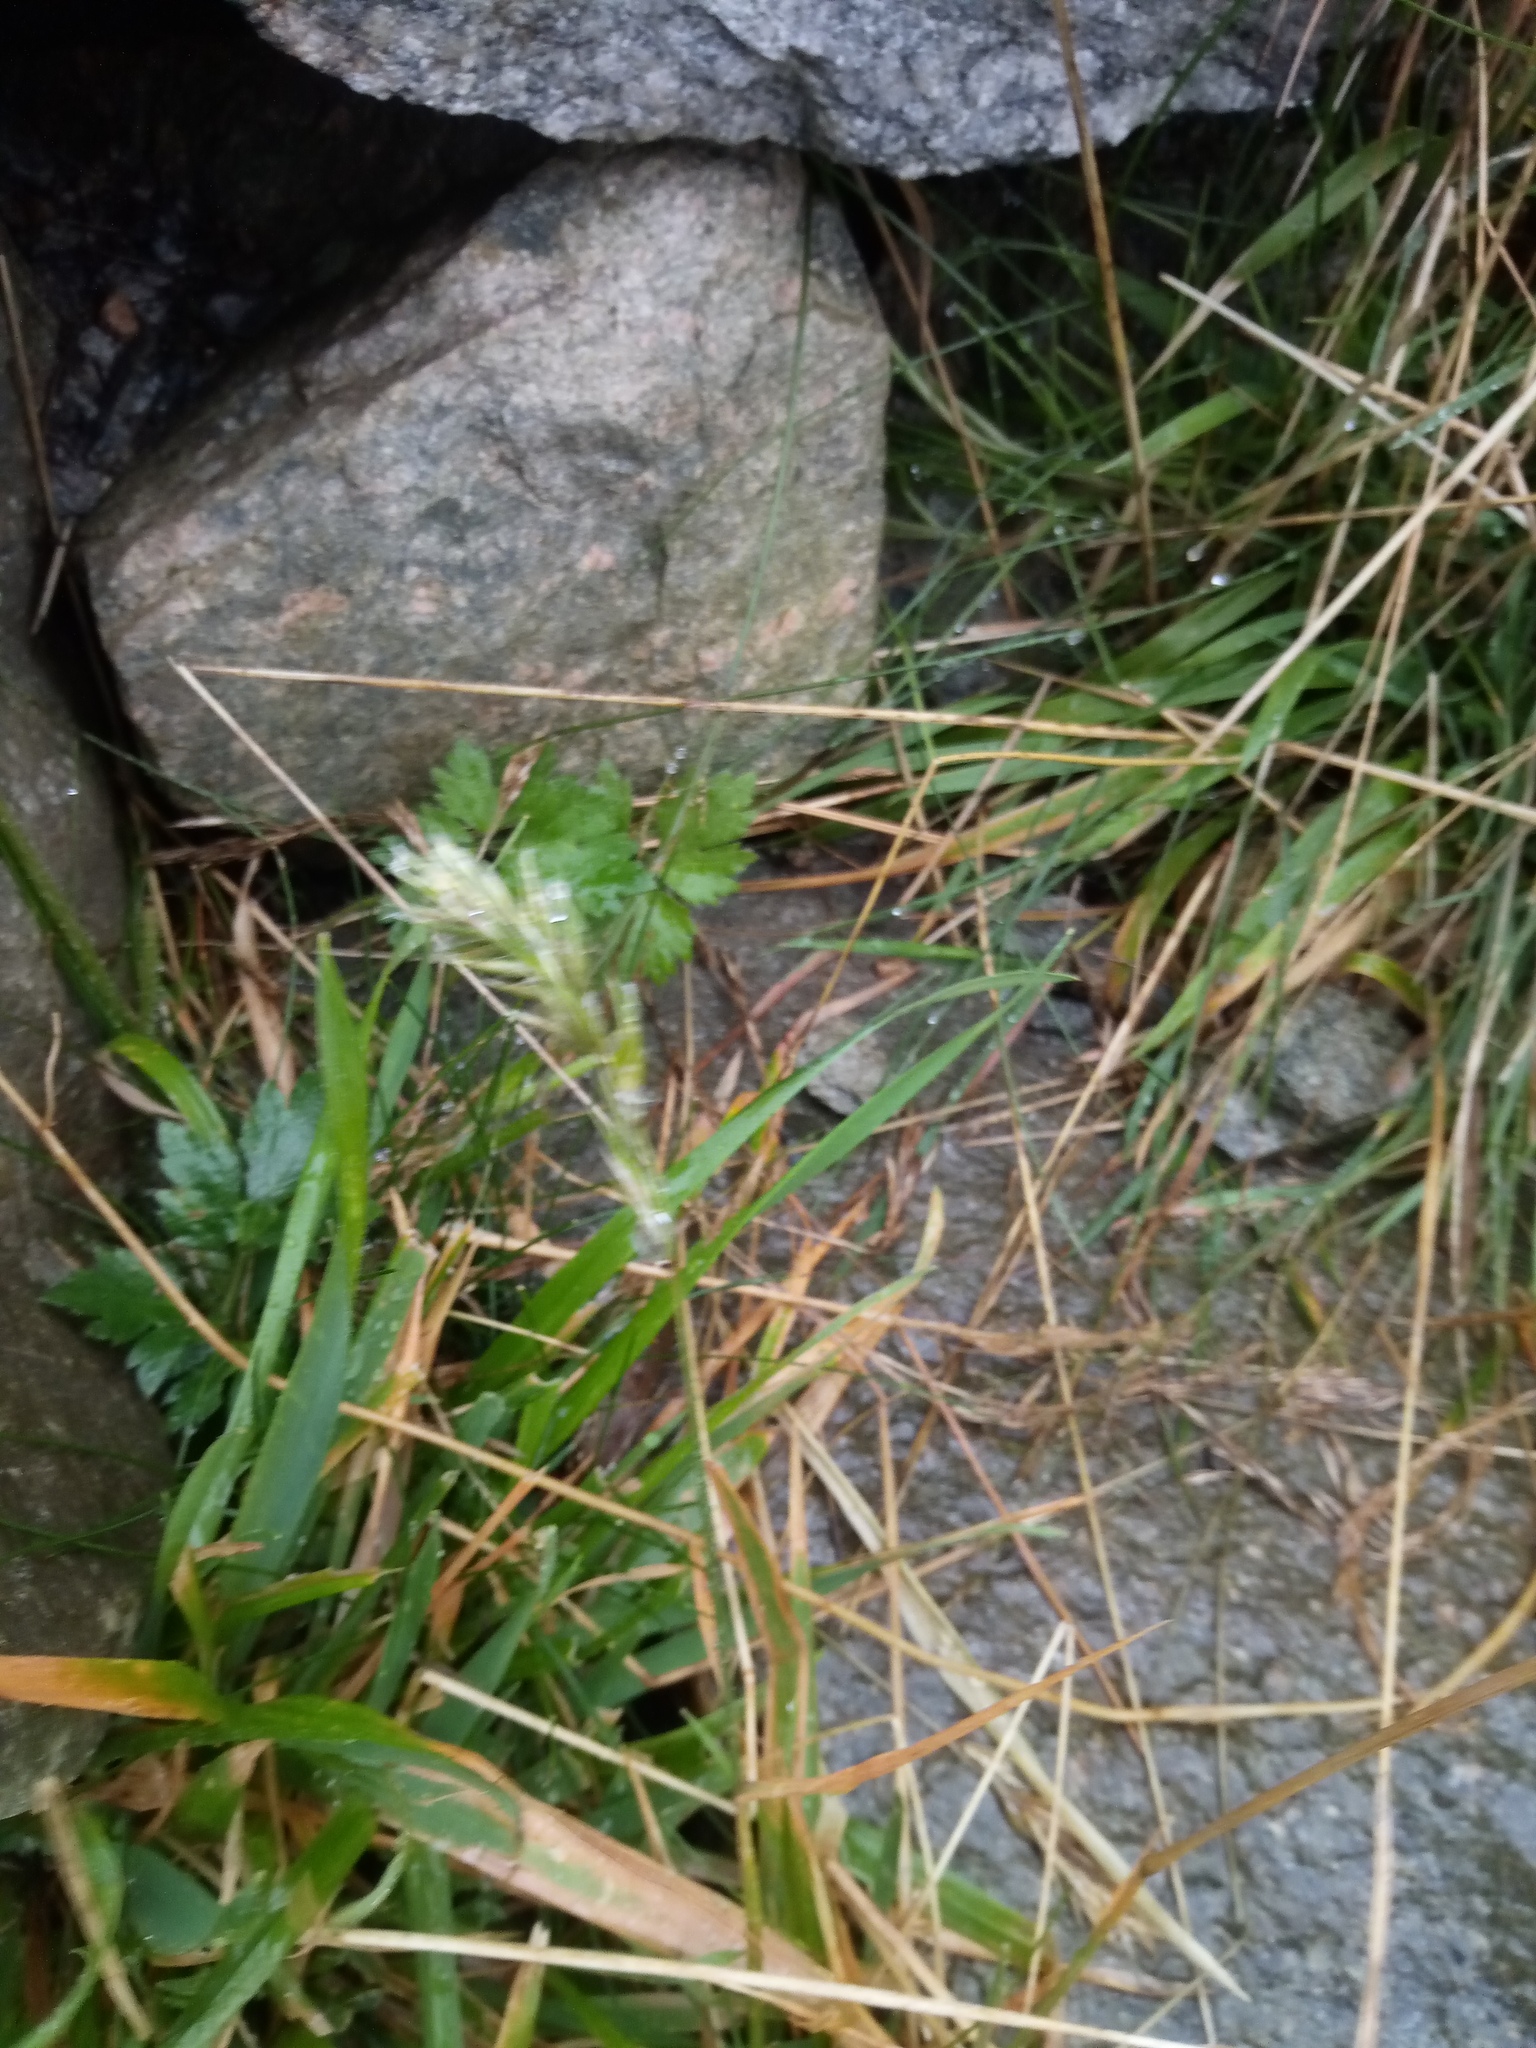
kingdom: Plantae
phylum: Tracheophyta
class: Liliopsida
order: Poales
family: Poaceae
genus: Anthoxanthum
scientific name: Anthoxanthum odoratum
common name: Sweet vernalgrass
